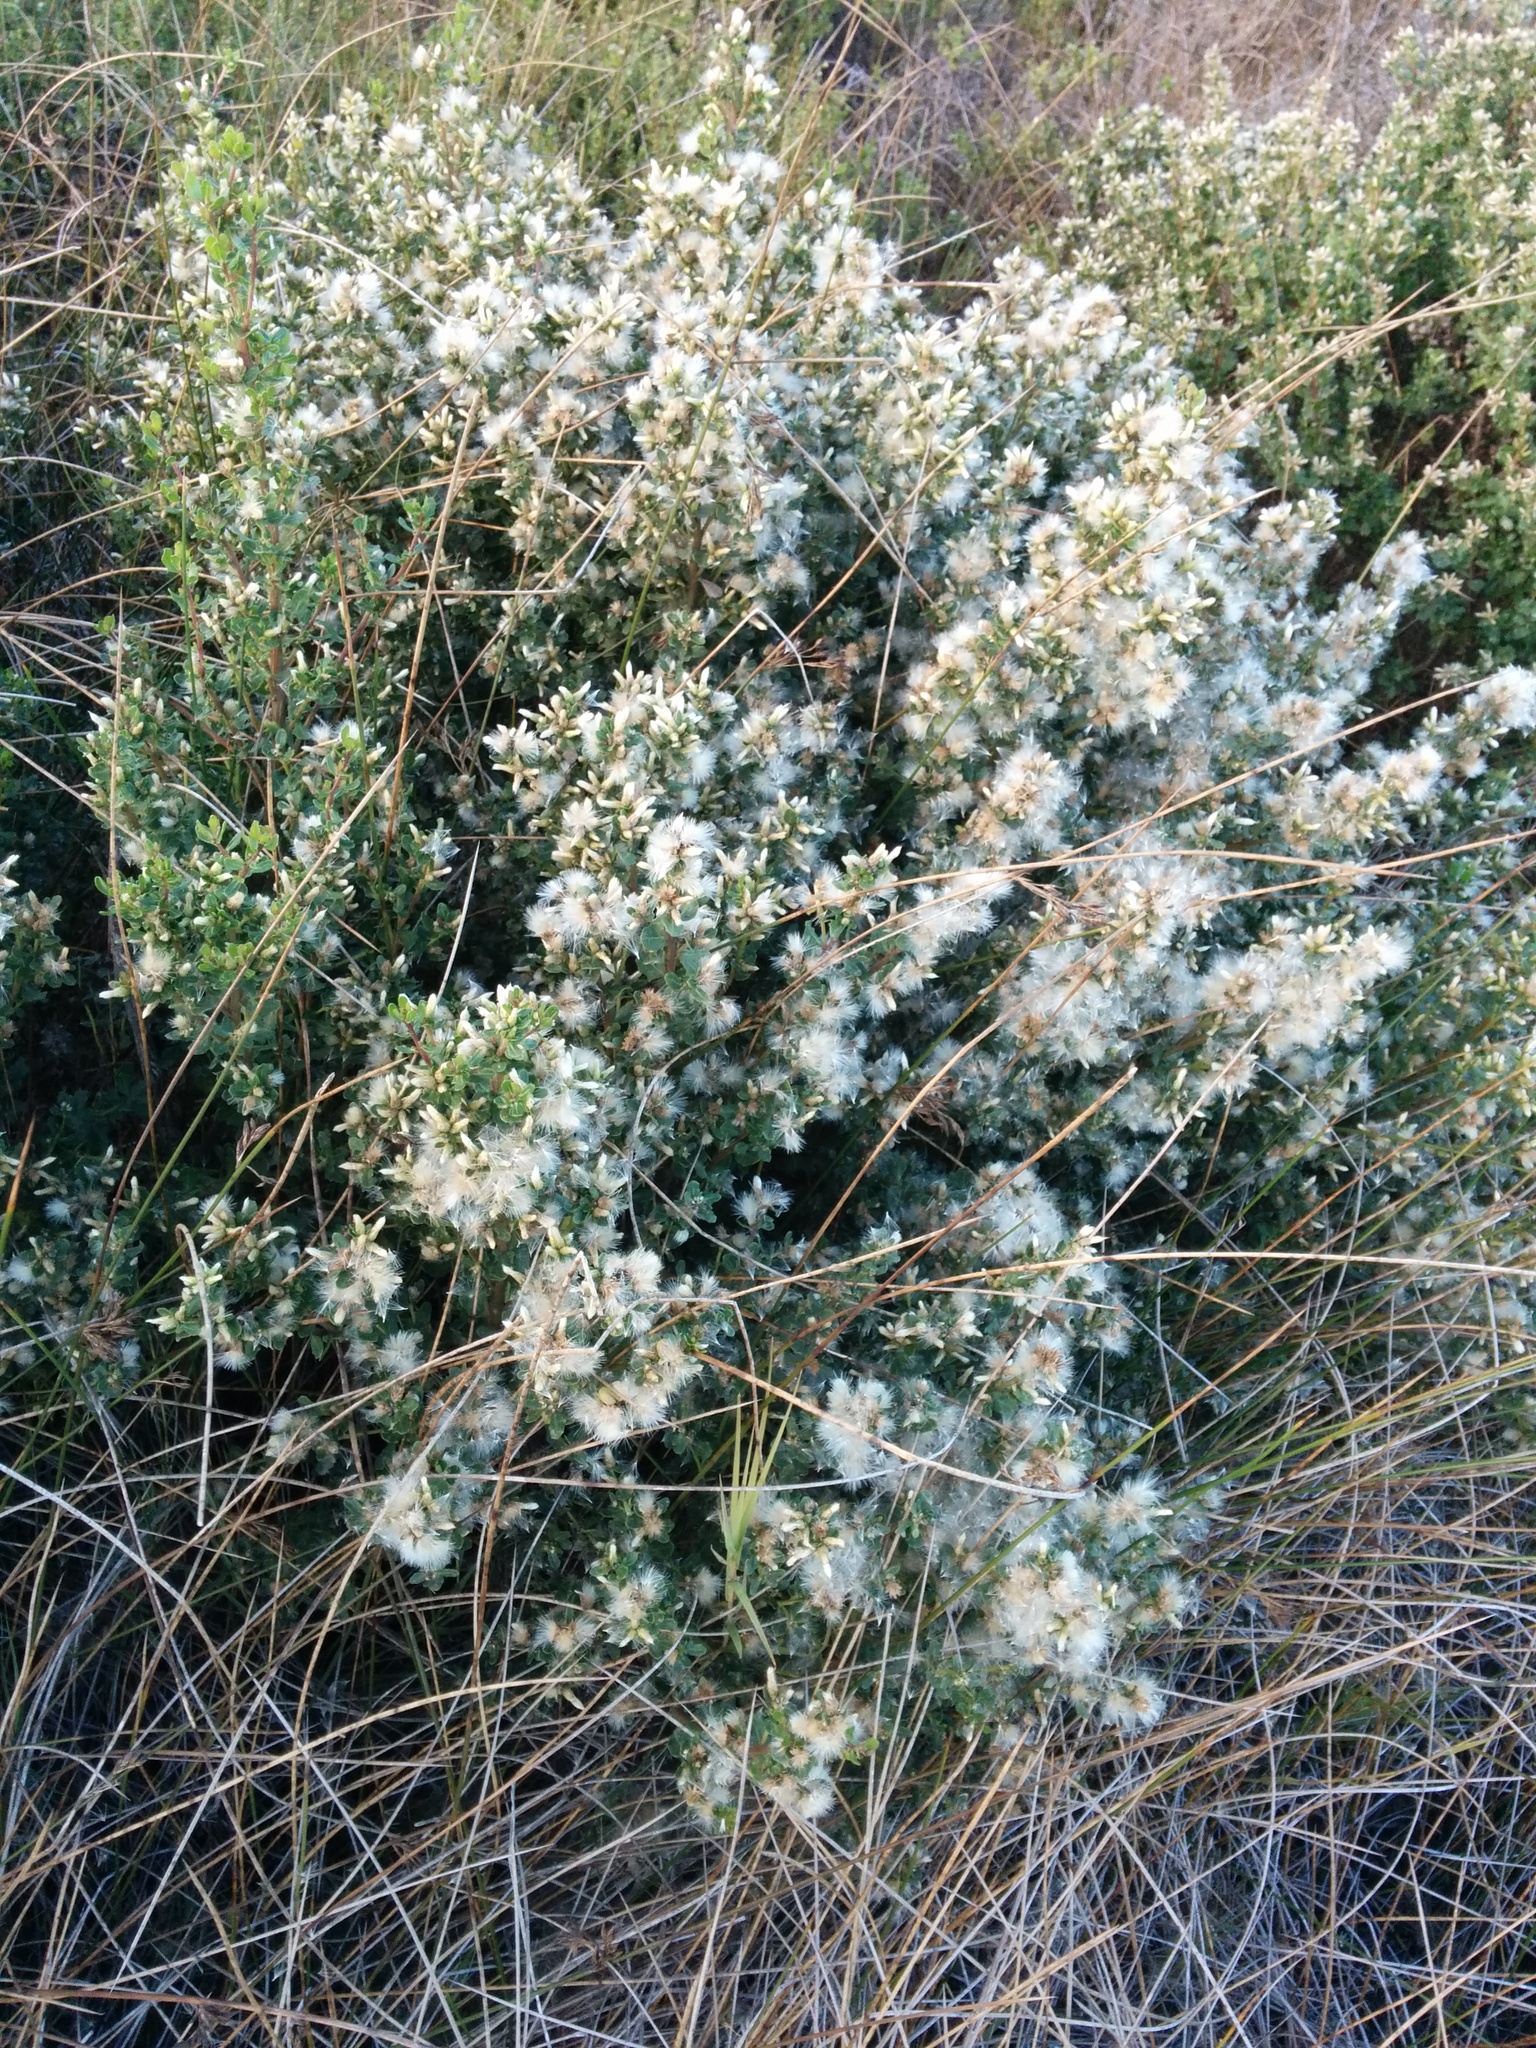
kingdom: Plantae
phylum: Tracheophyta
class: Magnoliopsida
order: Asterales
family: Asteraceae
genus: Baccharis
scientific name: Baccharis pilularis
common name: Coyotebrush
